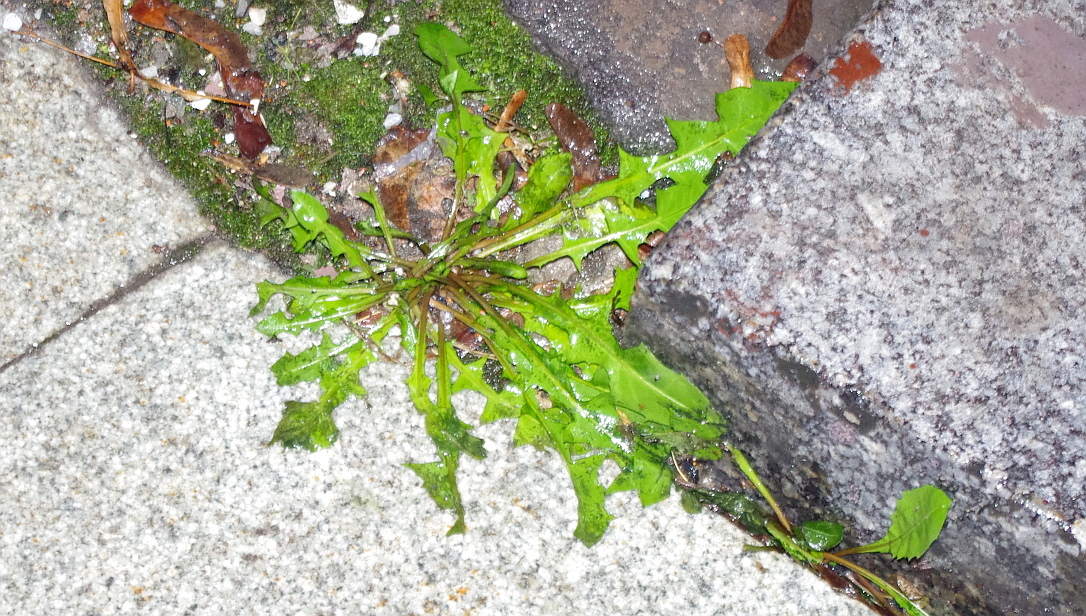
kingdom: Plantae
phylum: Tracheophyta
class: Magnoliopsida
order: Asterales
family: Asteraceae
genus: Taraxacum
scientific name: Taraxacum officinale
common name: Common dandelion
